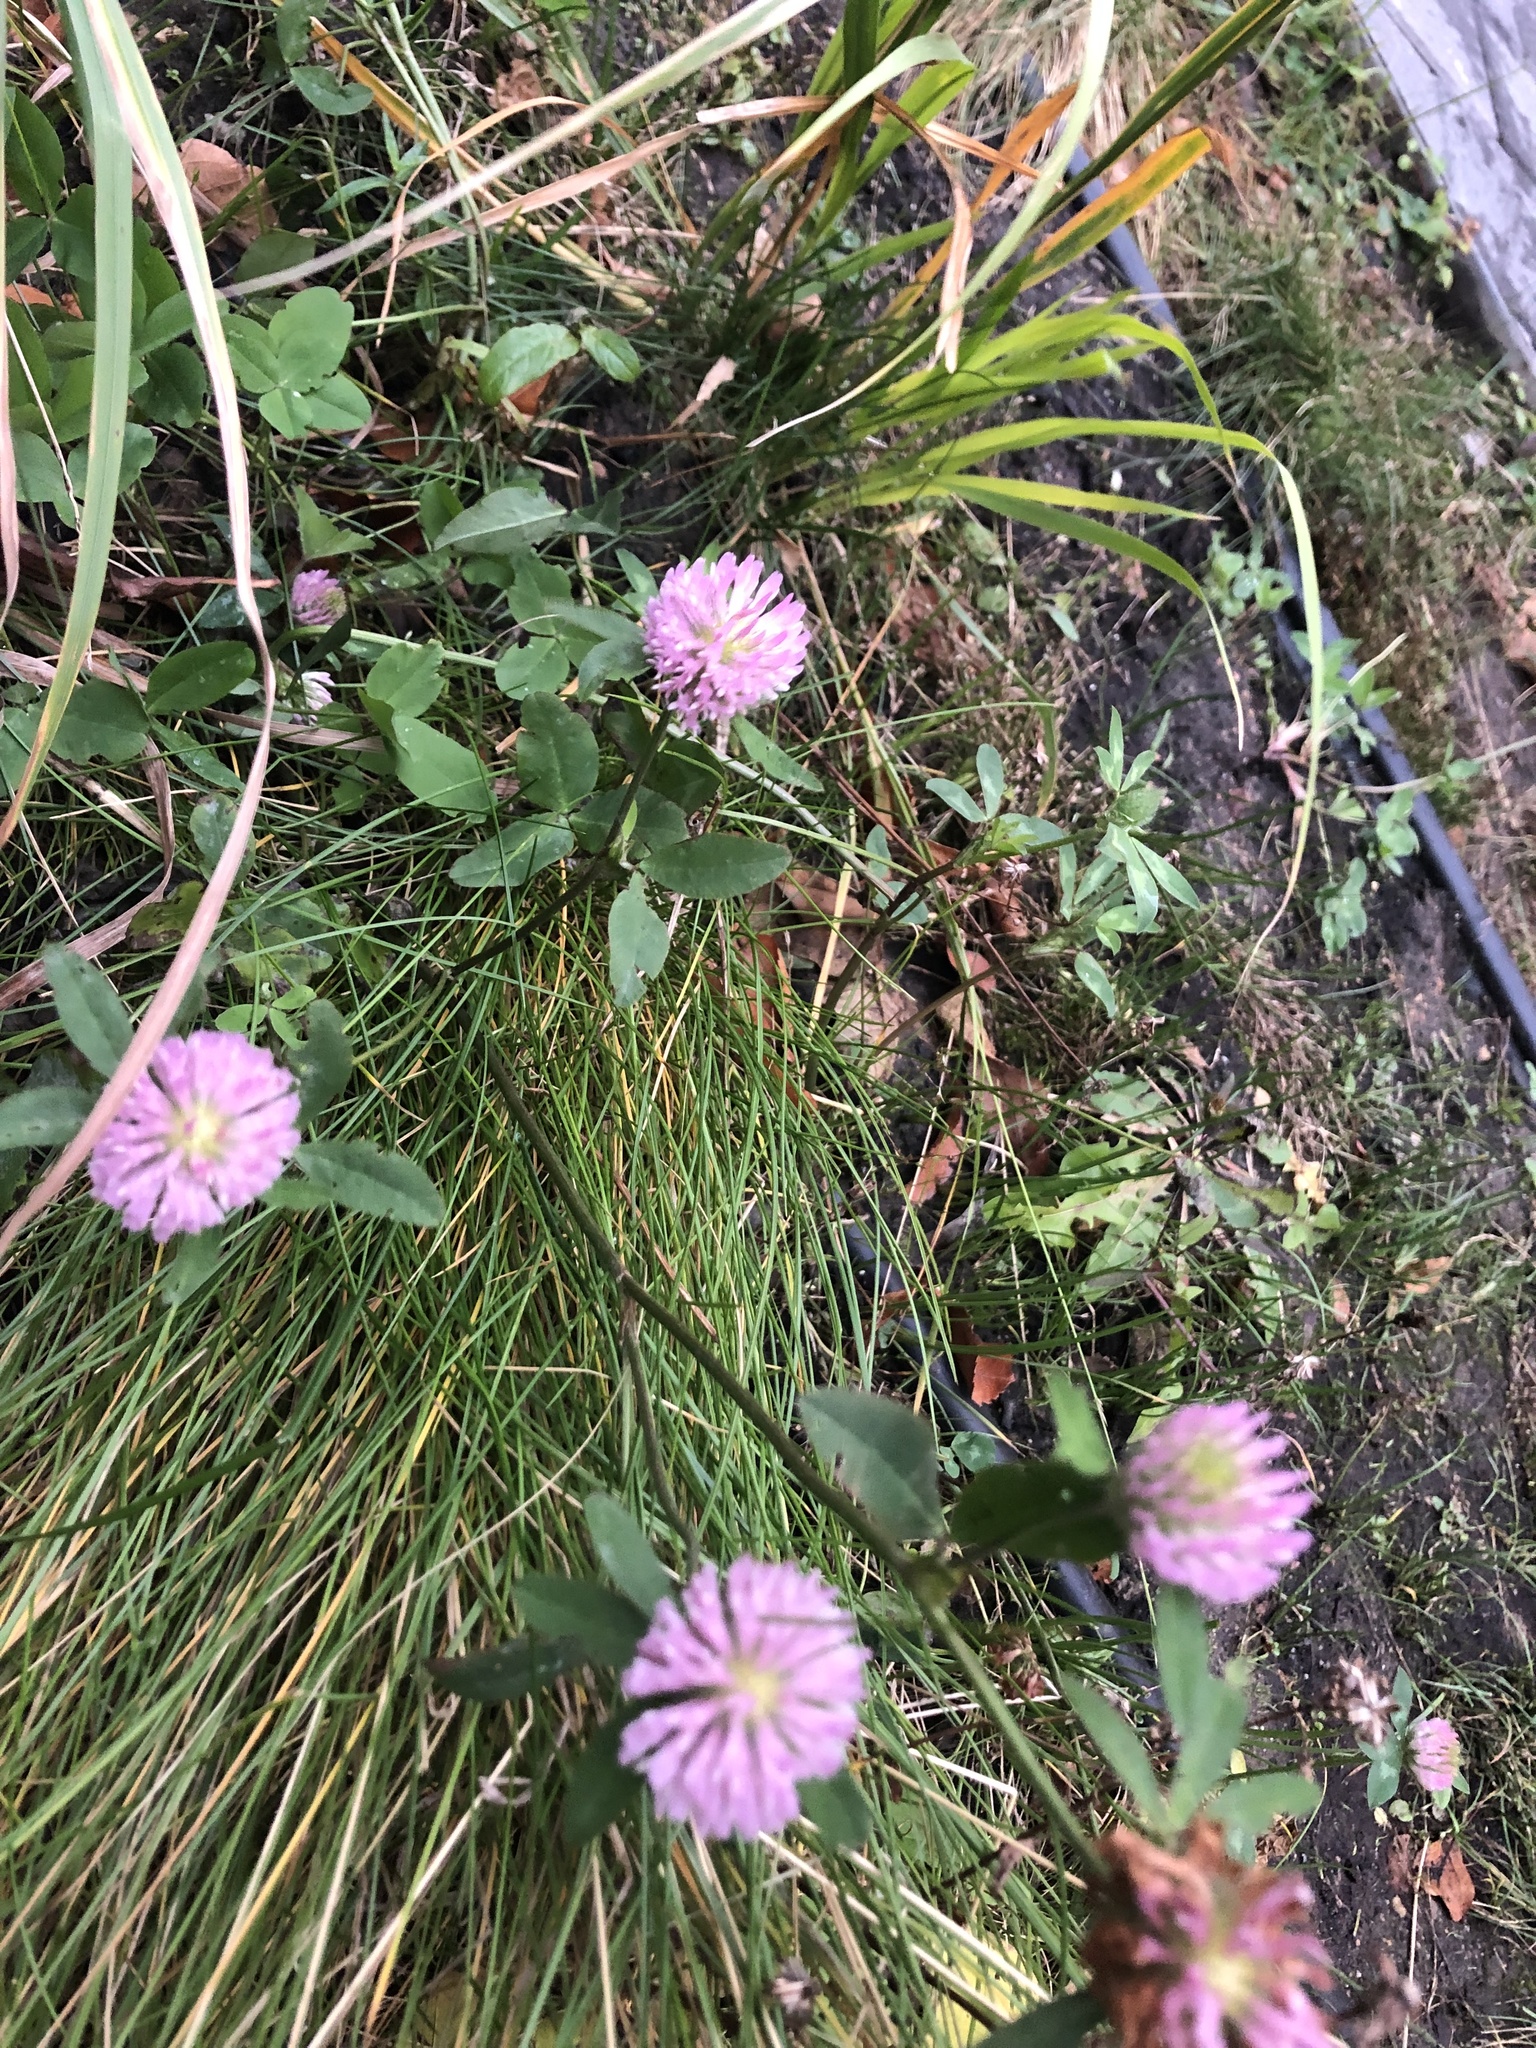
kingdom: Plantae
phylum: Tracheophyta
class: Magnoliopsida
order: Fabales
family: Fabaceae
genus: Trifolium
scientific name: Trifolium pratense
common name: Red clover
